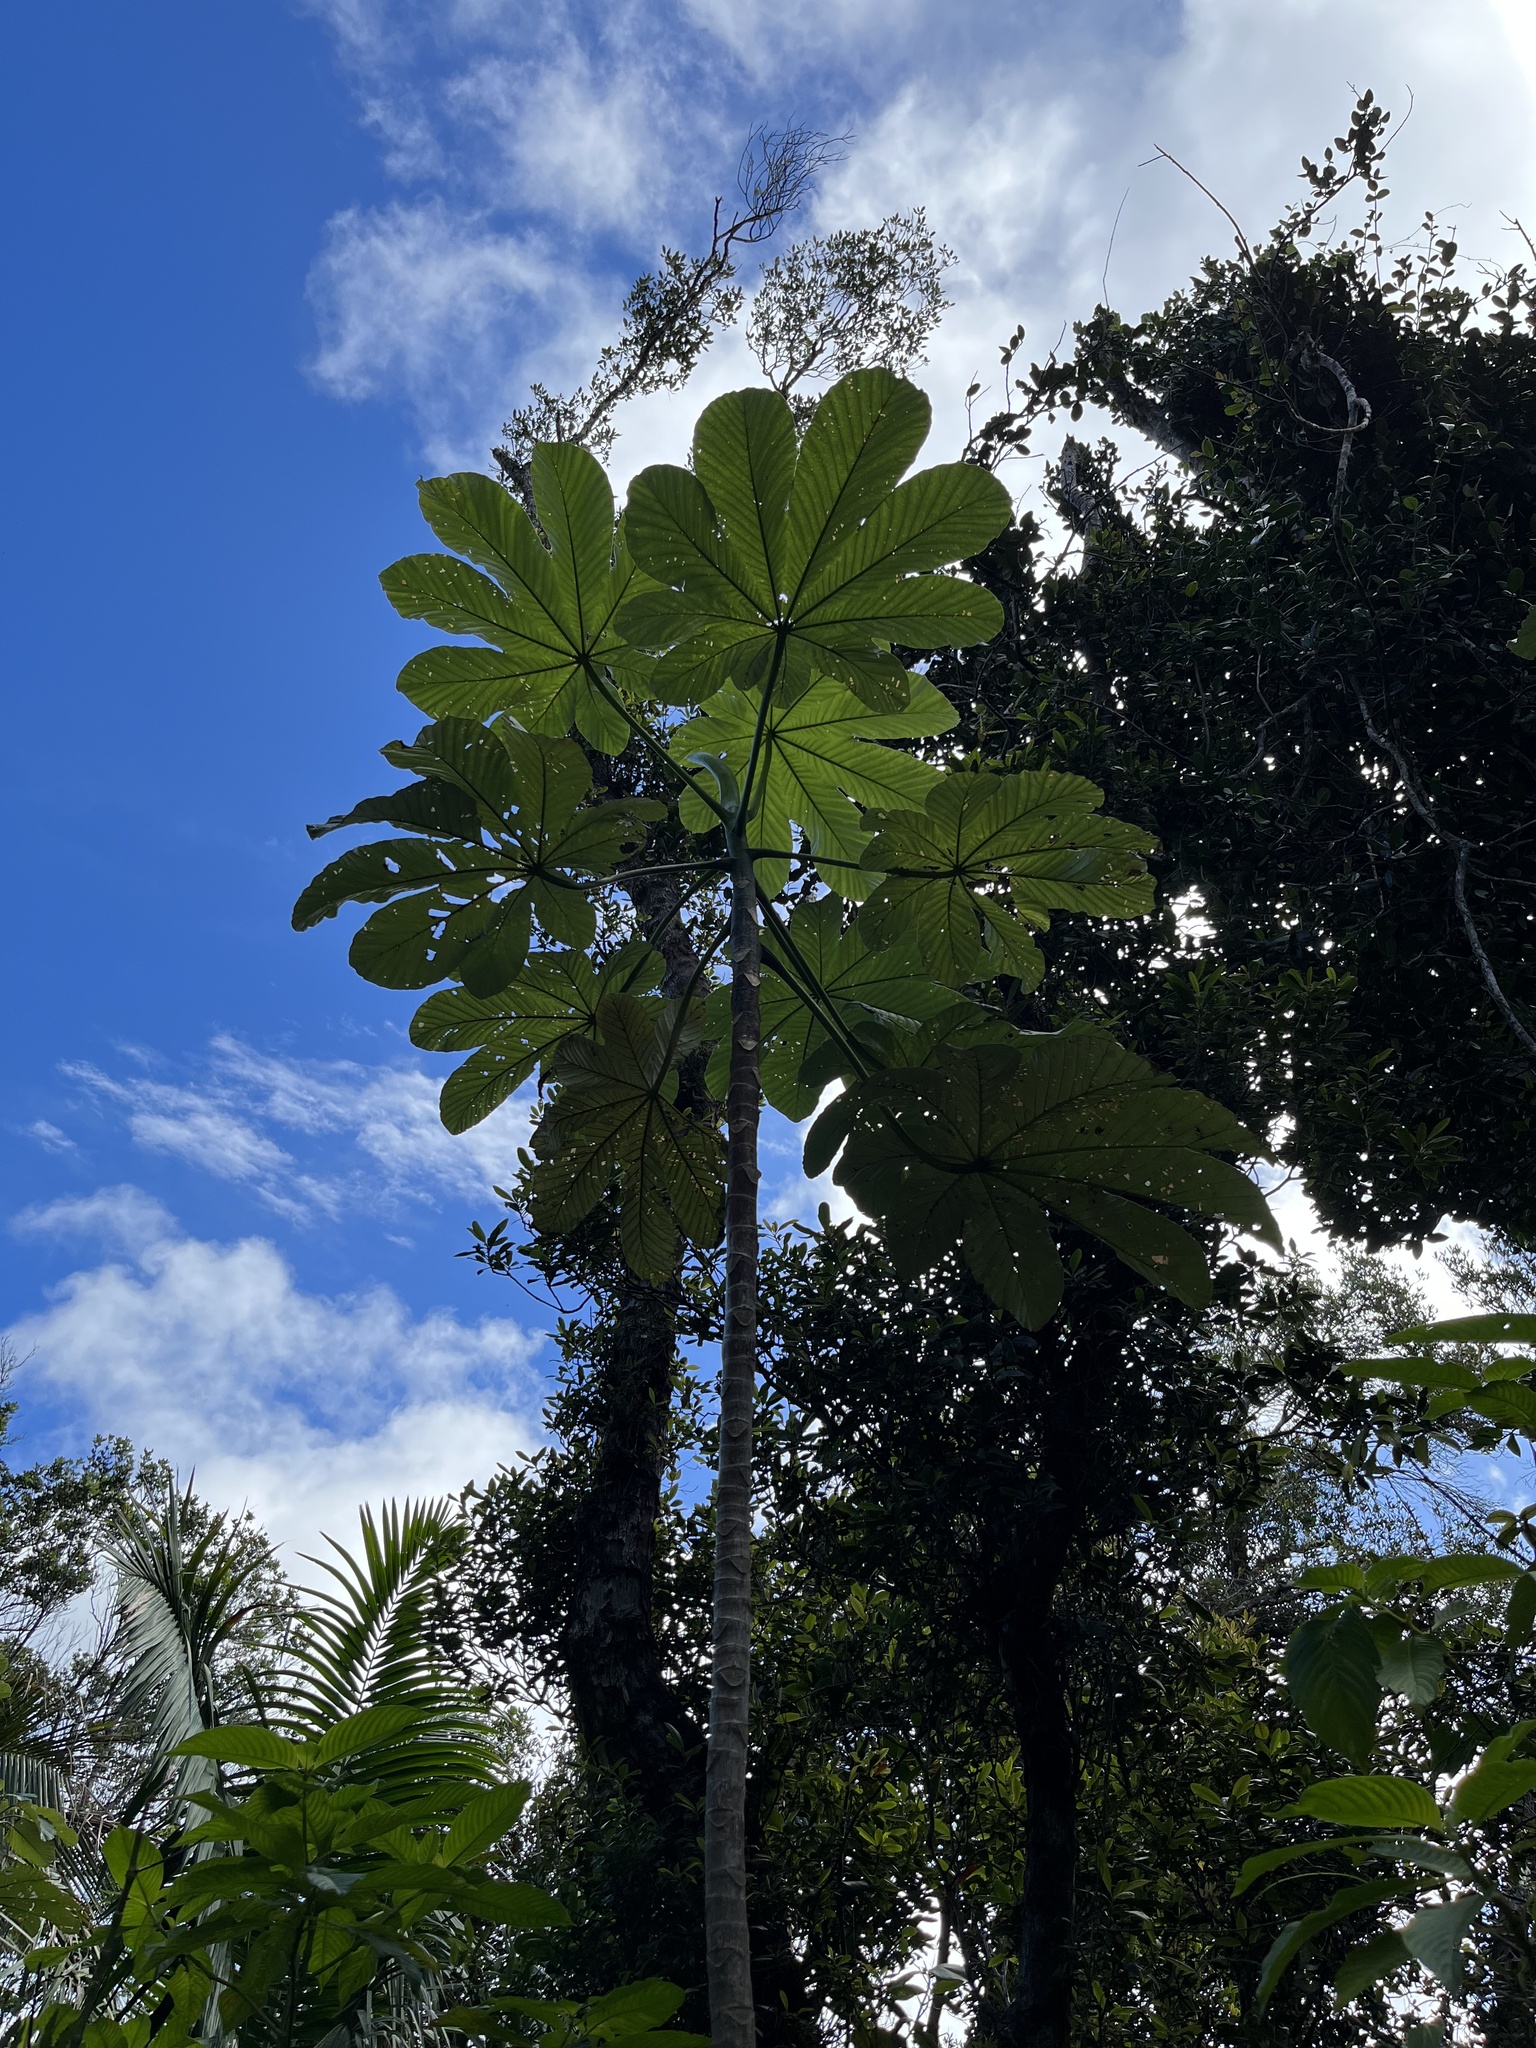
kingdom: Plantae
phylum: Tracheophyta
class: Magnoliopsida
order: Rosales
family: Urticaceae
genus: Cecropia
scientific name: Cecropia schreberiana
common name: Trumpet tree
